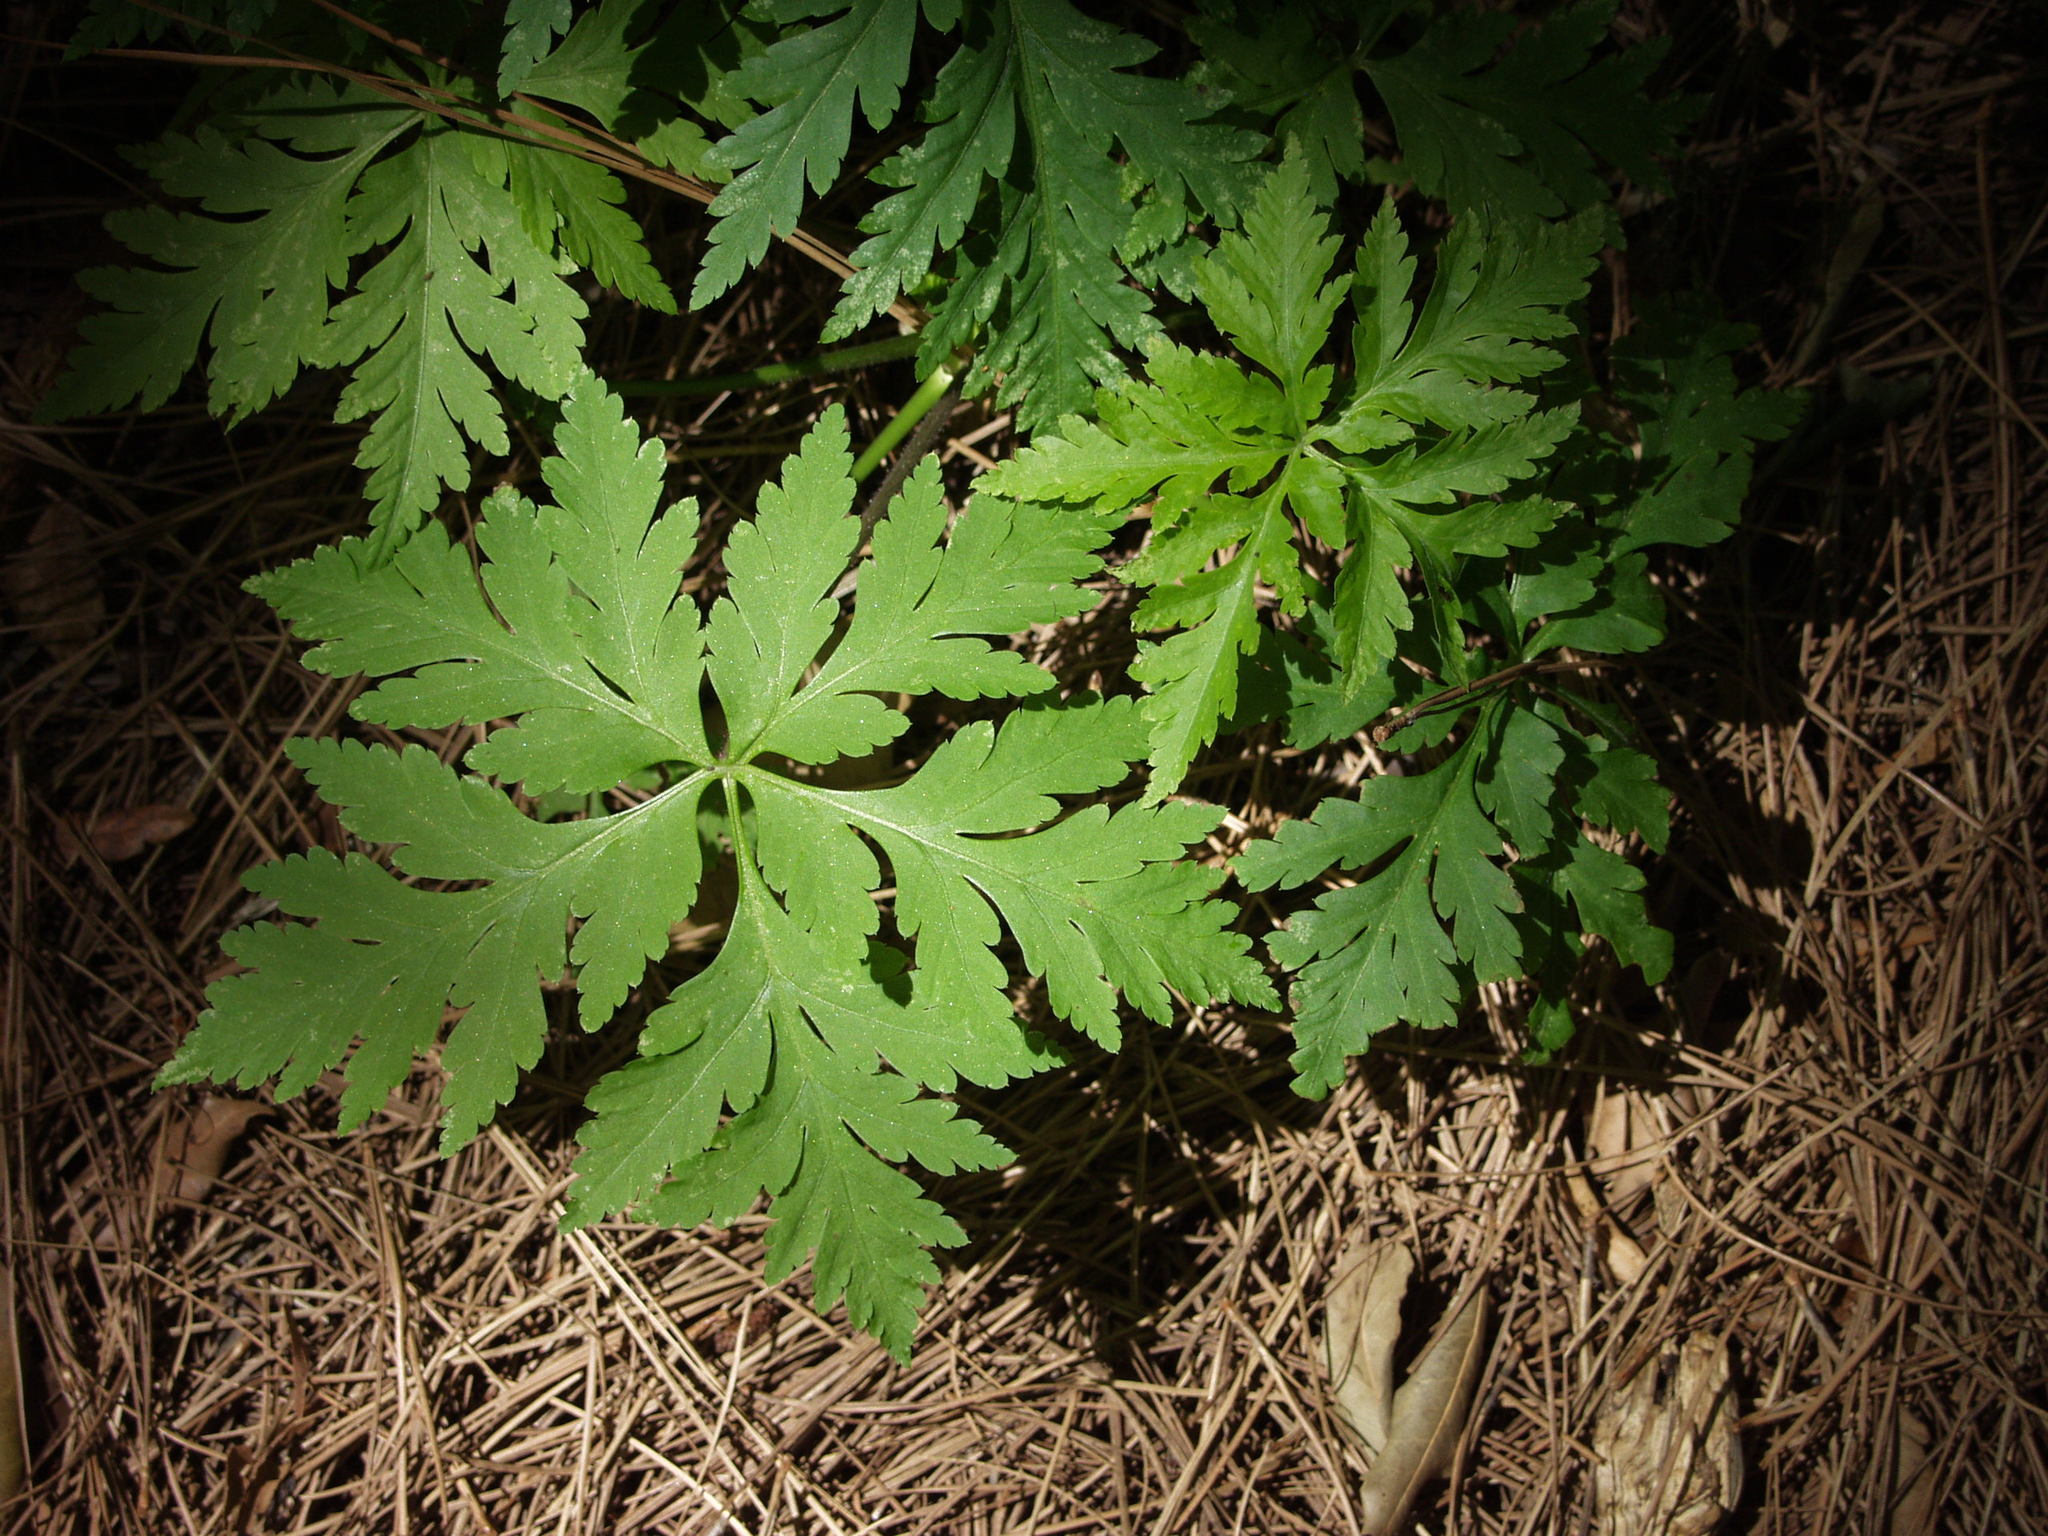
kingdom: Plantae
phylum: Tracheophyta
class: Magnoliopsida
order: Geraniales
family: Geraniaceae
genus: Geranium
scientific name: Geranium reuteri
